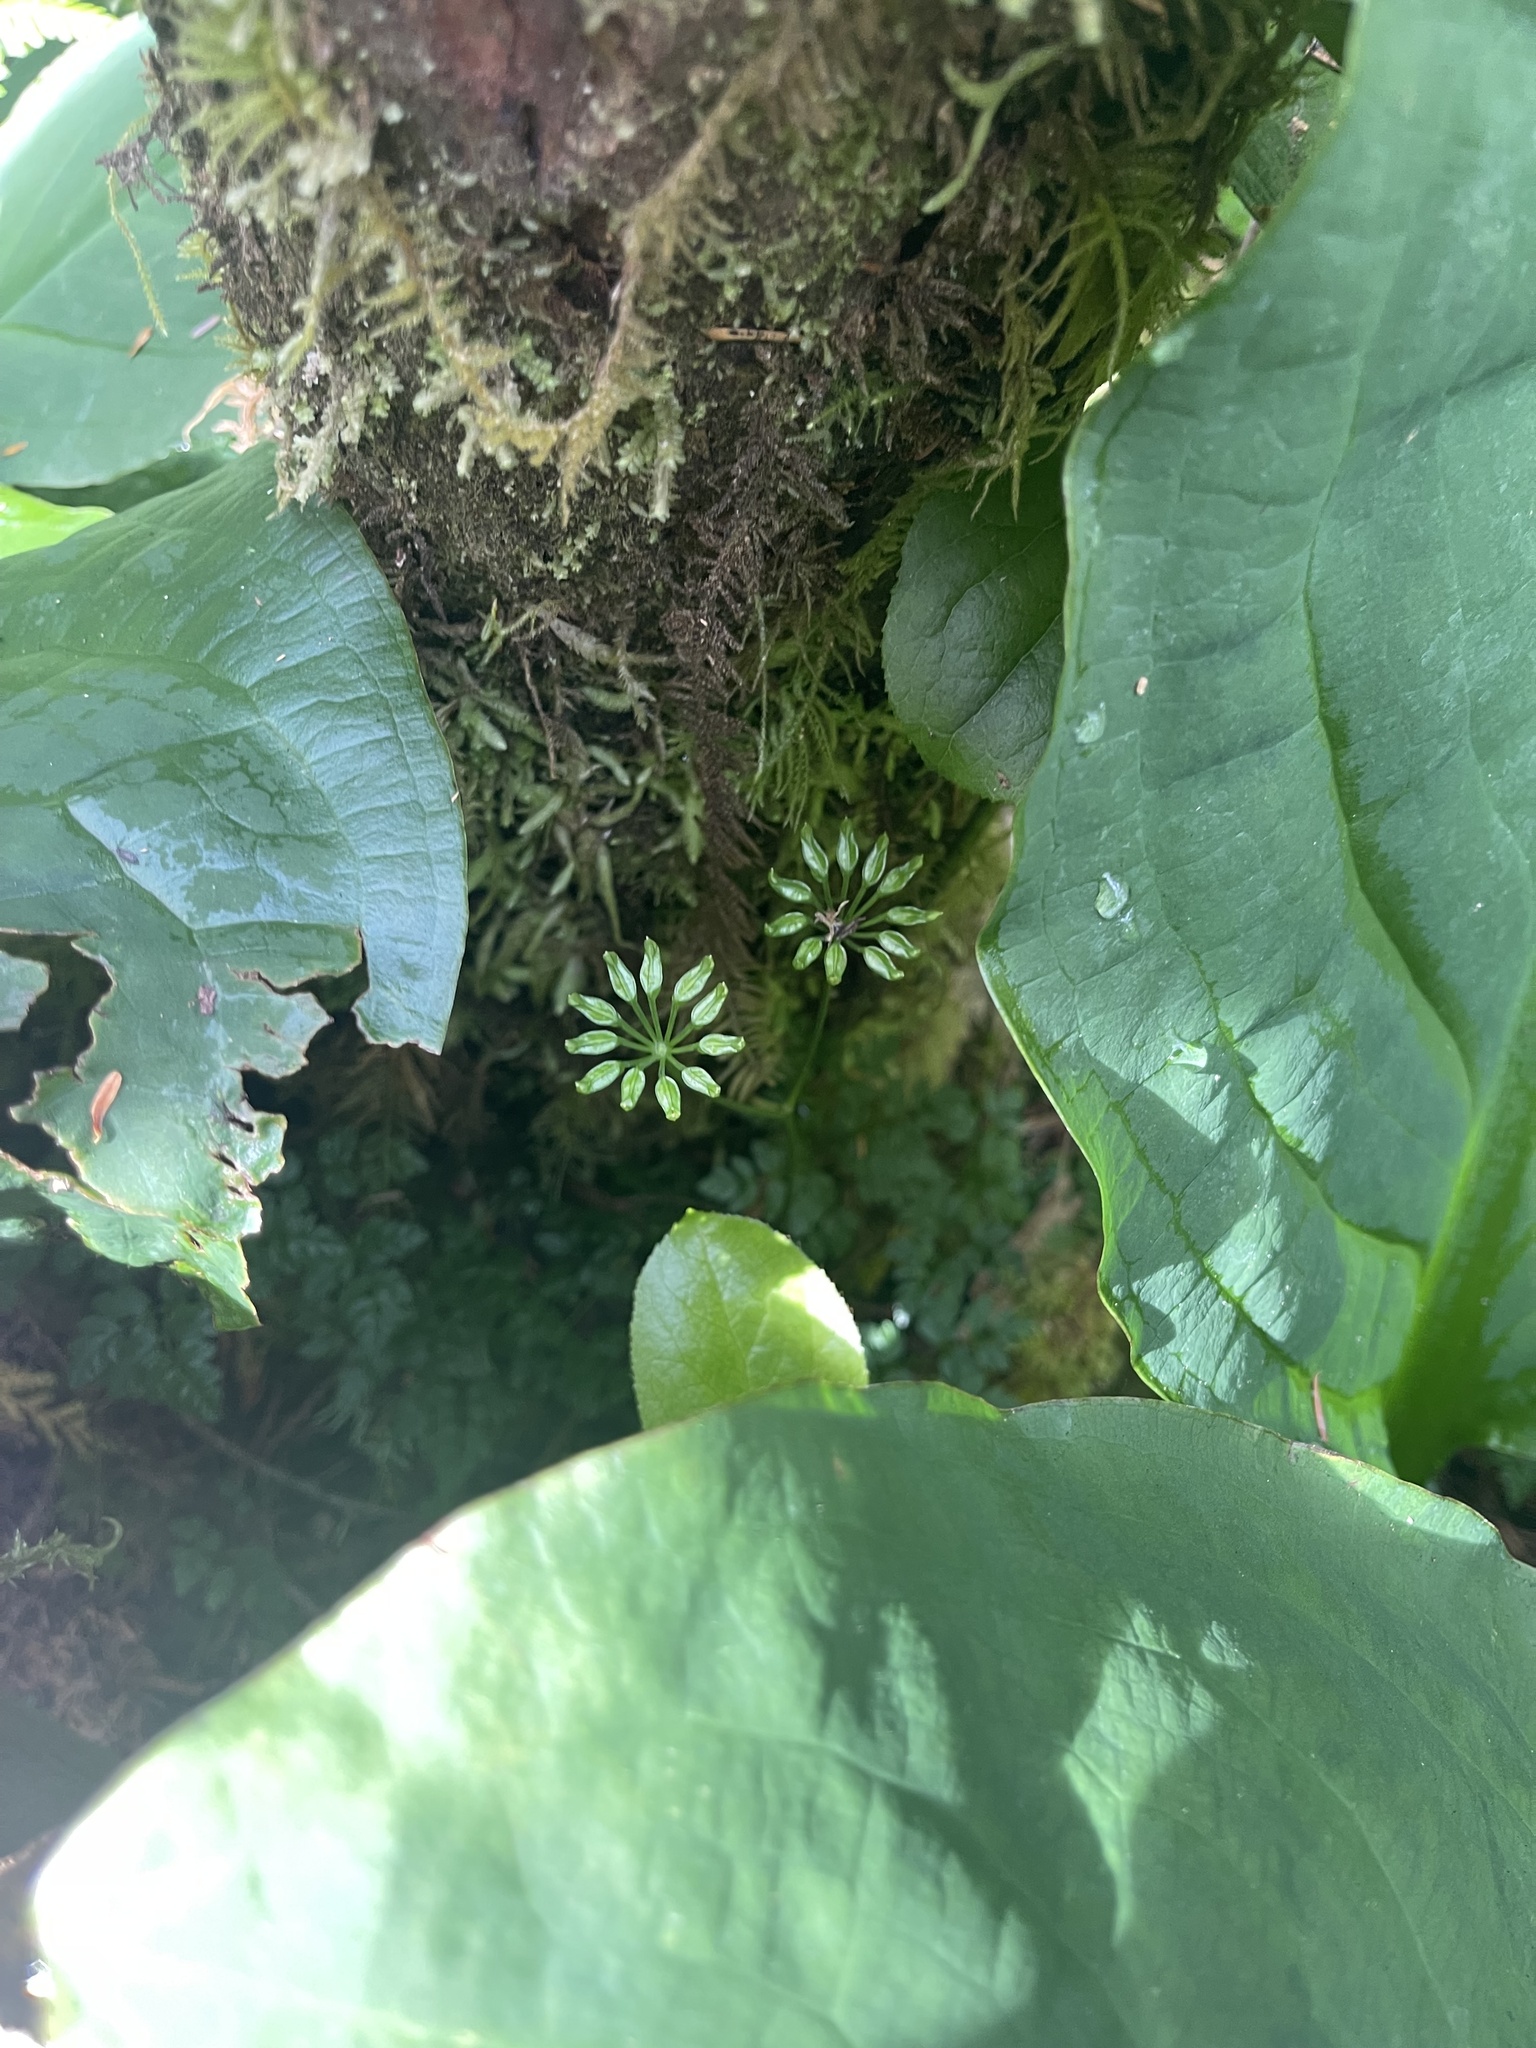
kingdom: Plantae
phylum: Tracheophyta
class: Magnoliopsida
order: Ranunculales
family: Ranunculaceae
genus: Coptis
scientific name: Coptis aspleniifolia
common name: Fern-leaved goldthread
